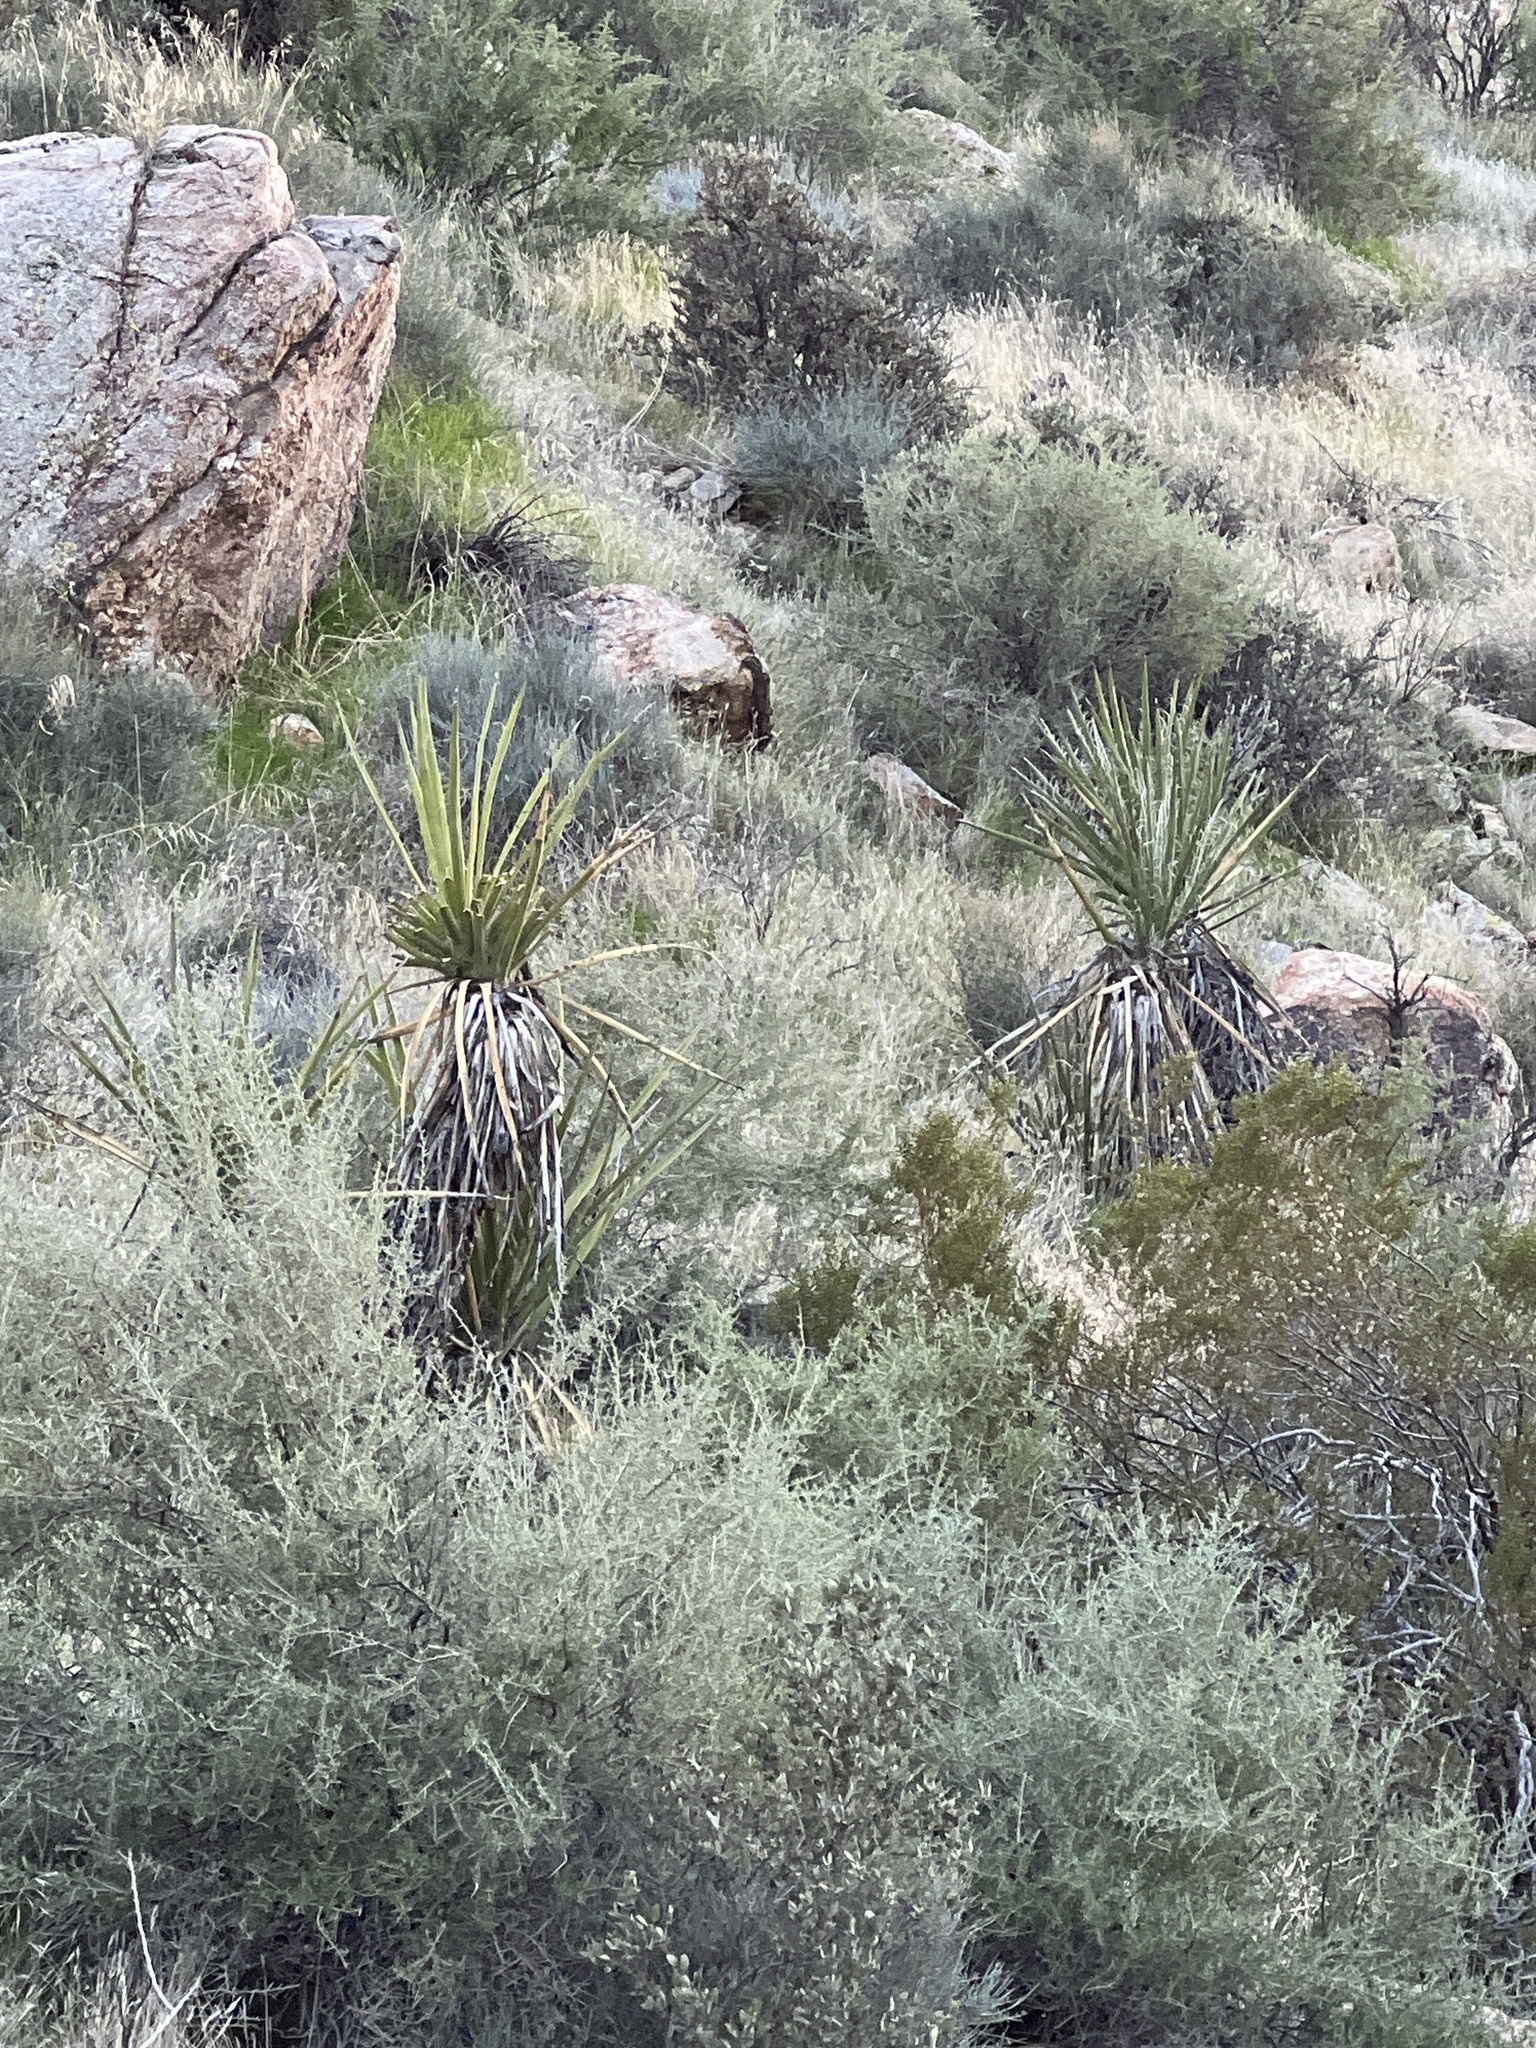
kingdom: Plantae
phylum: Tracheophyta
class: Liliopsida
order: Asparagales
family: Asparagaceae
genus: Yucca
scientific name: Yucca schidigera
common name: Mojave yucca
